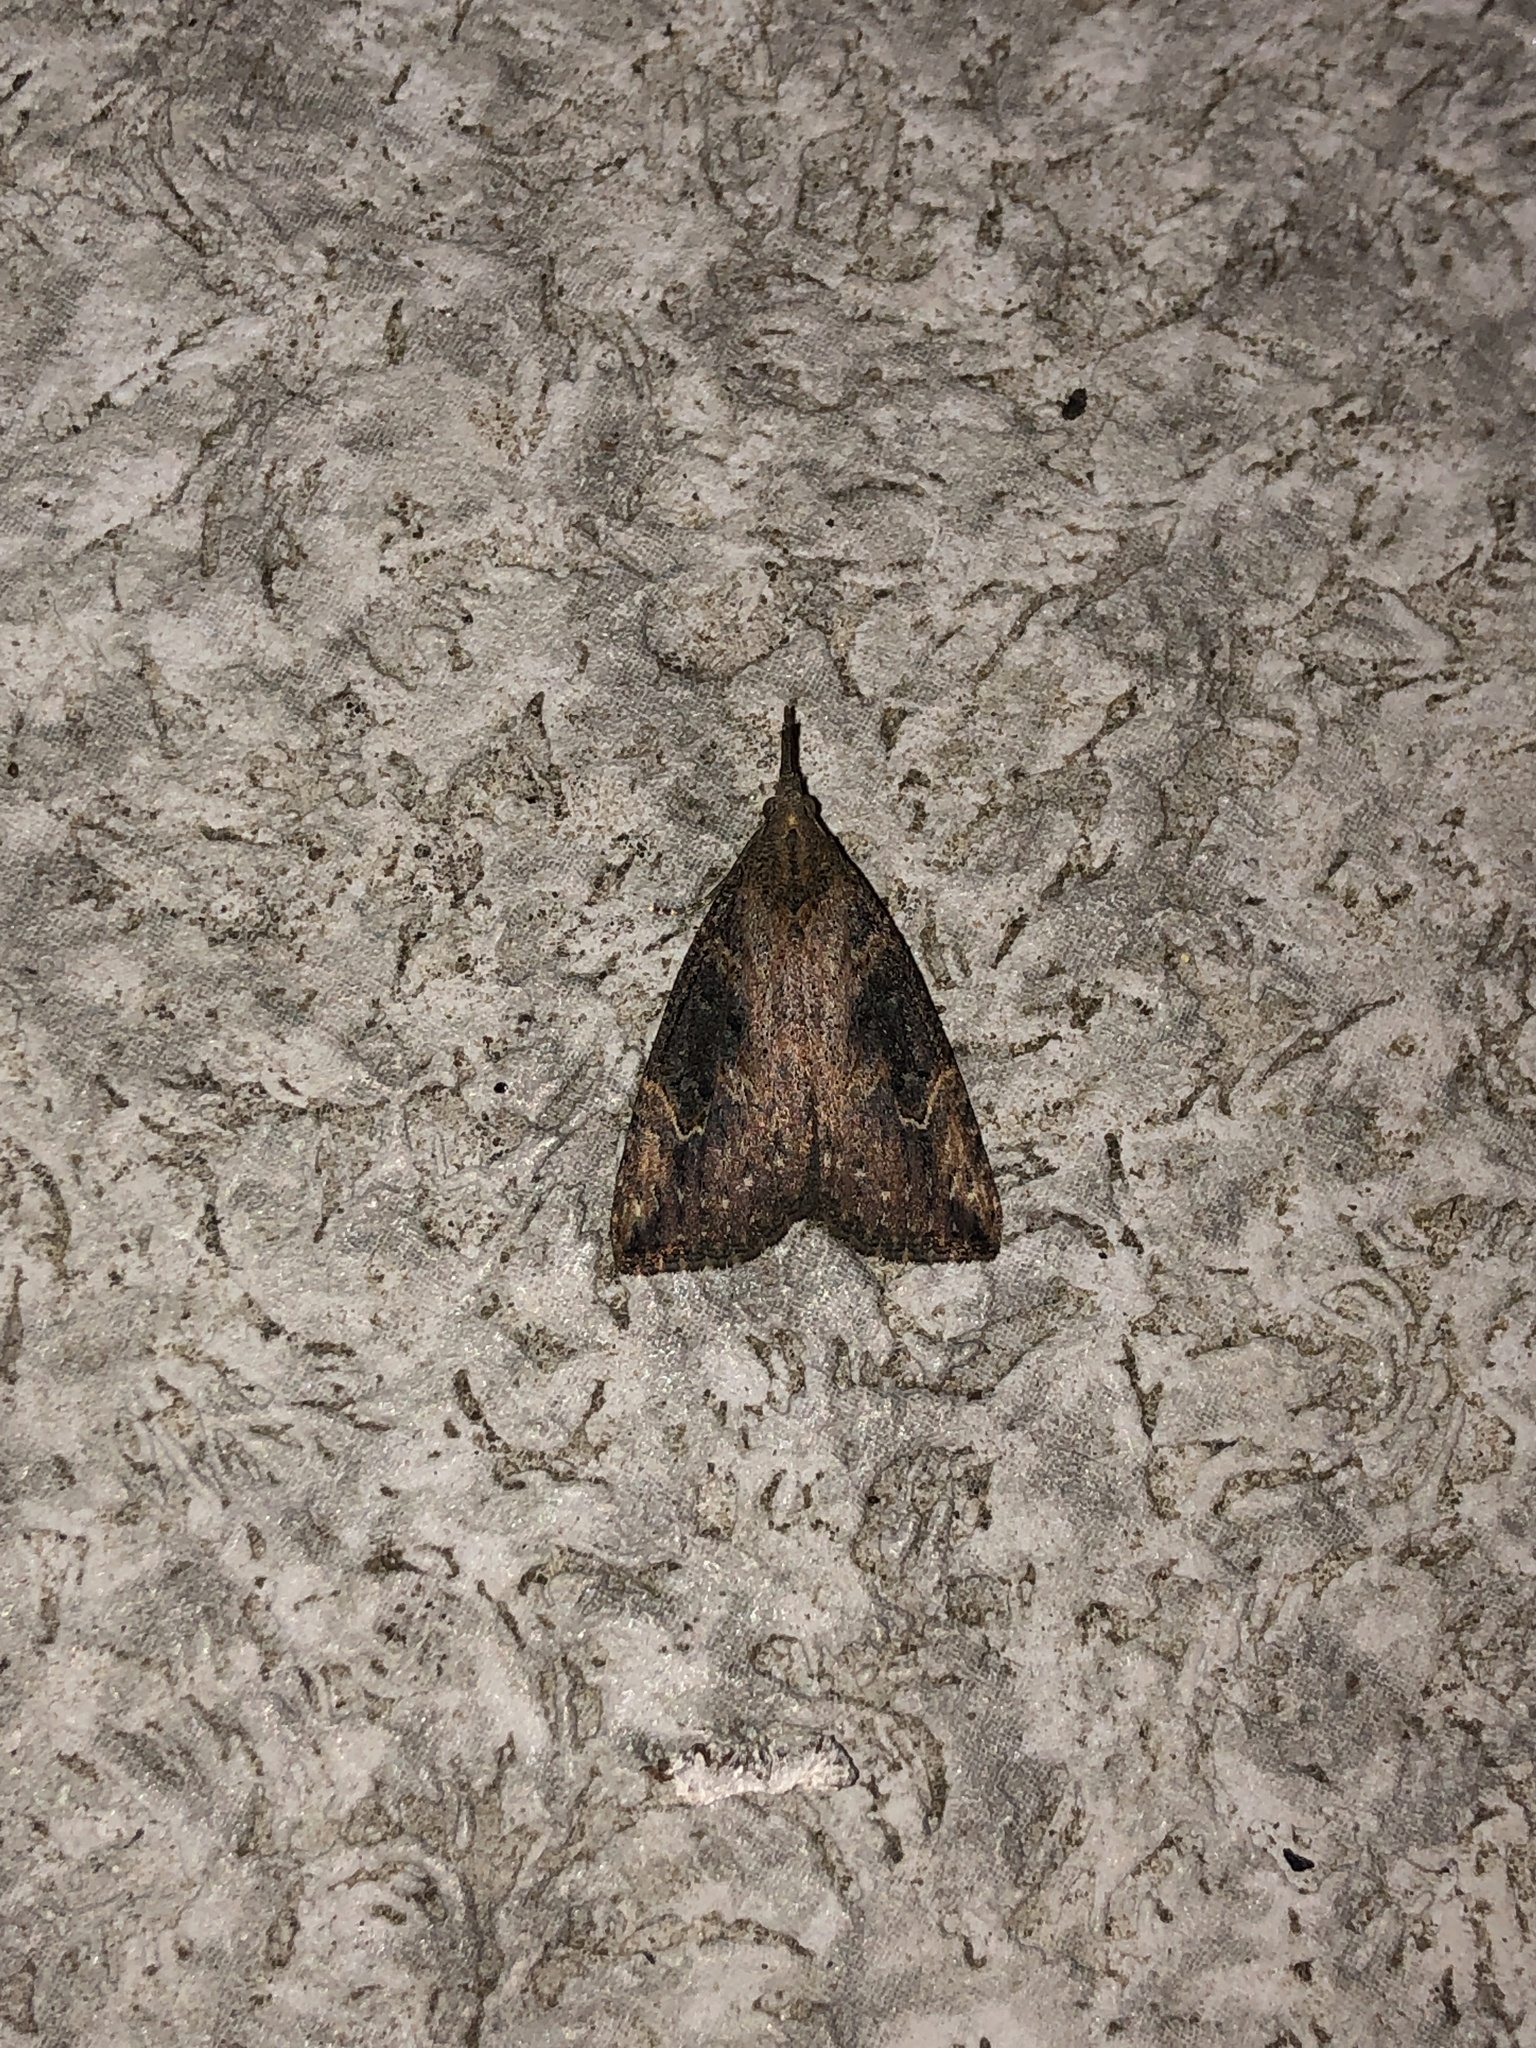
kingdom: Animalia
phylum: Arthropoda
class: Insecta
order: Lepidoptera
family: Erebidae
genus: Hypena
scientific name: Hypena humuli
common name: Hop vine snout
